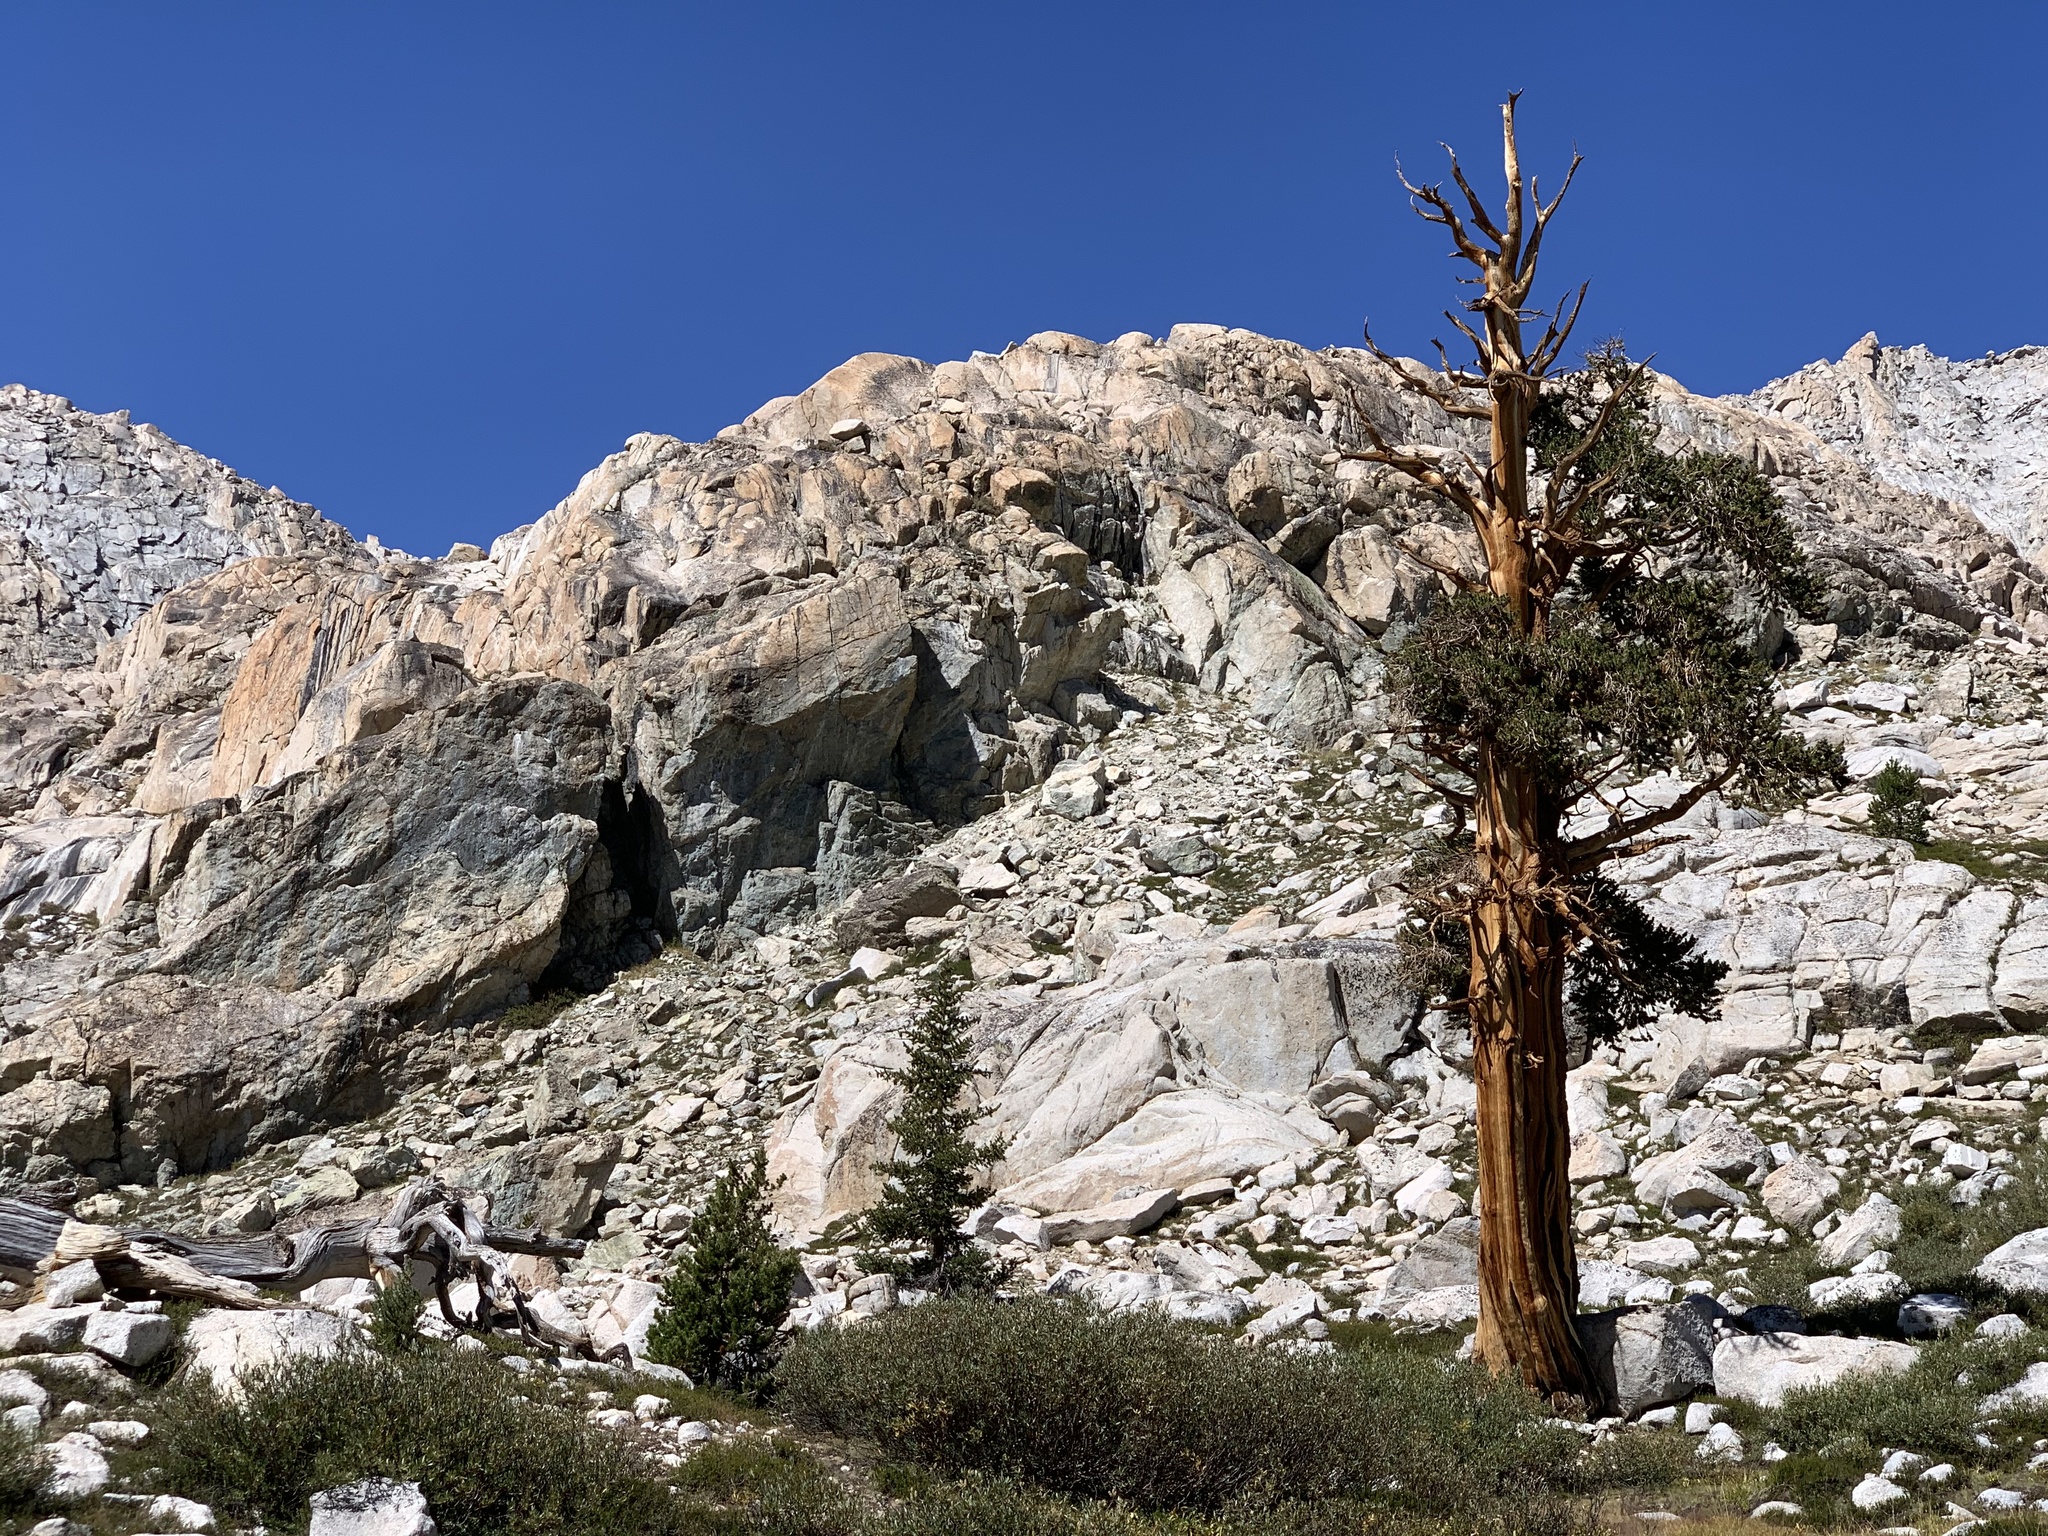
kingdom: Plantae
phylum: Tracheophyta
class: Pinopsida
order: Pinales
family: Pinaceae
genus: Pinus
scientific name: Pinus balfouriana
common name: Foxtail pine
